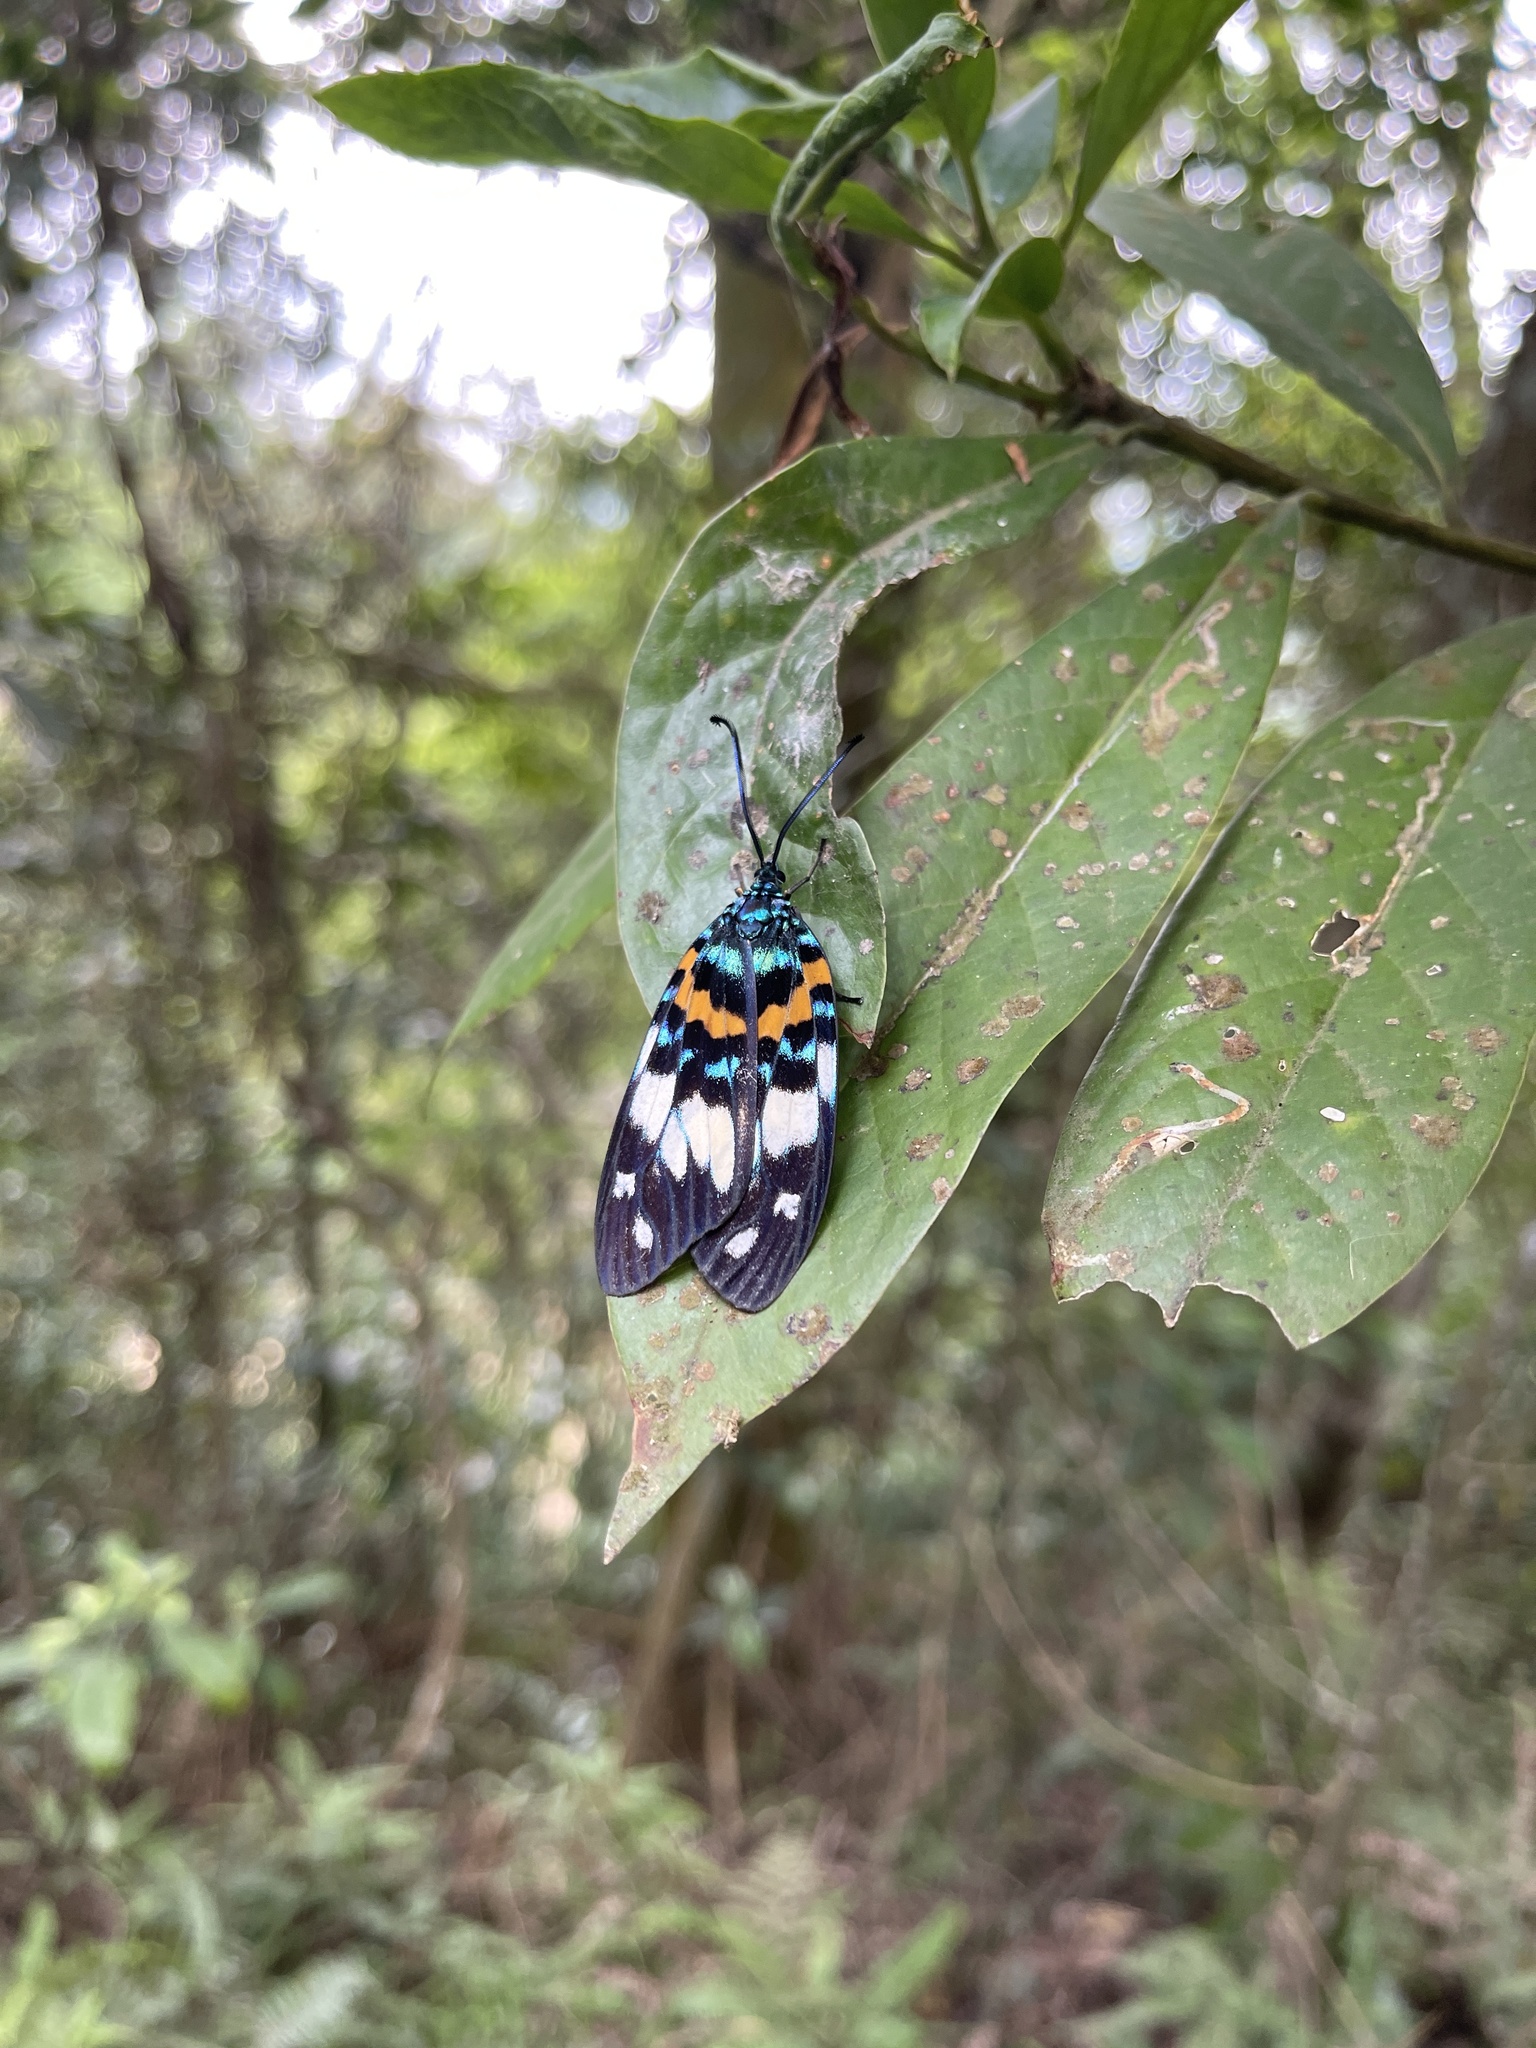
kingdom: Animalia
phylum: Arthropoda
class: Insecta
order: Lepidoptera
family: Zygaenidae
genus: Erasmia
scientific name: Erasmia pulchella
